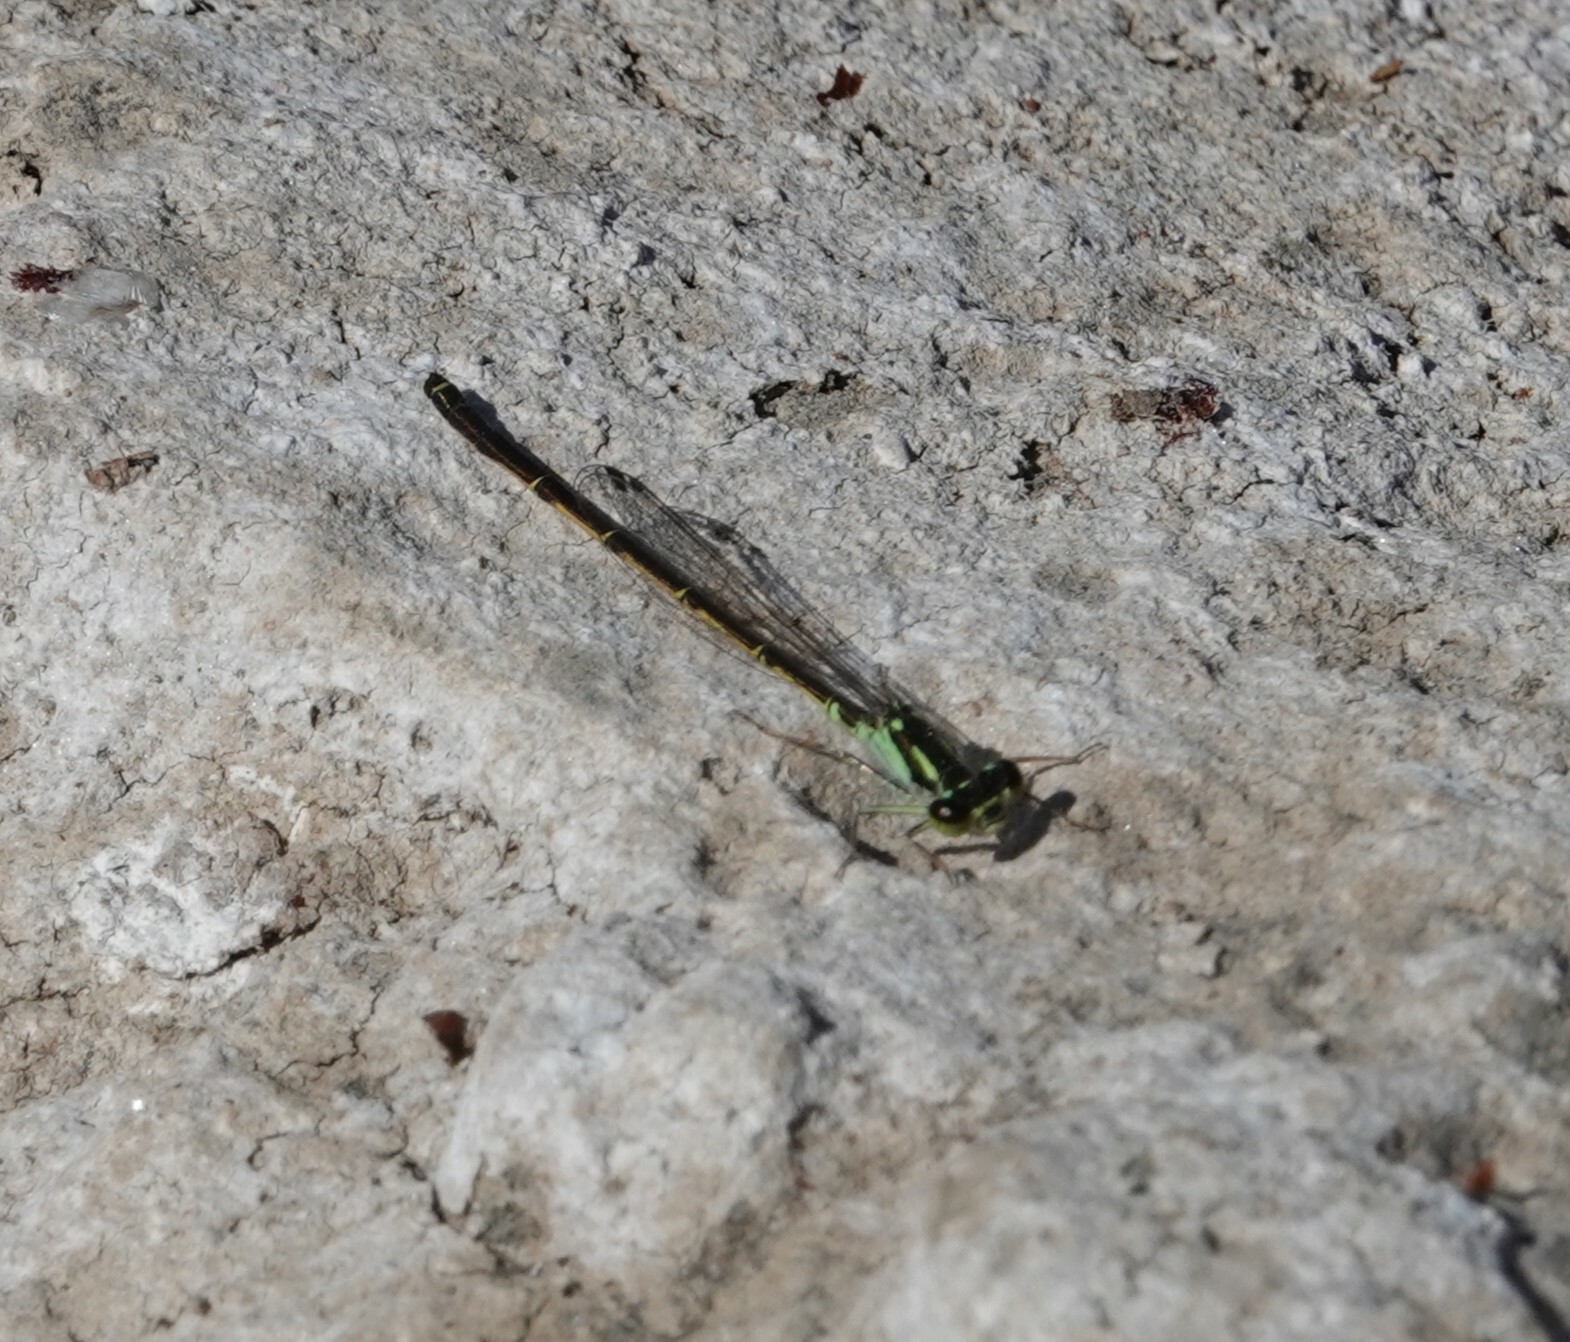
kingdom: Animalia
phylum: Arthropoda
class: Insecta
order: Odonata
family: Coenagrionidae
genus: Ischnura
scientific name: Ischnura posita
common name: Fragile forktail
